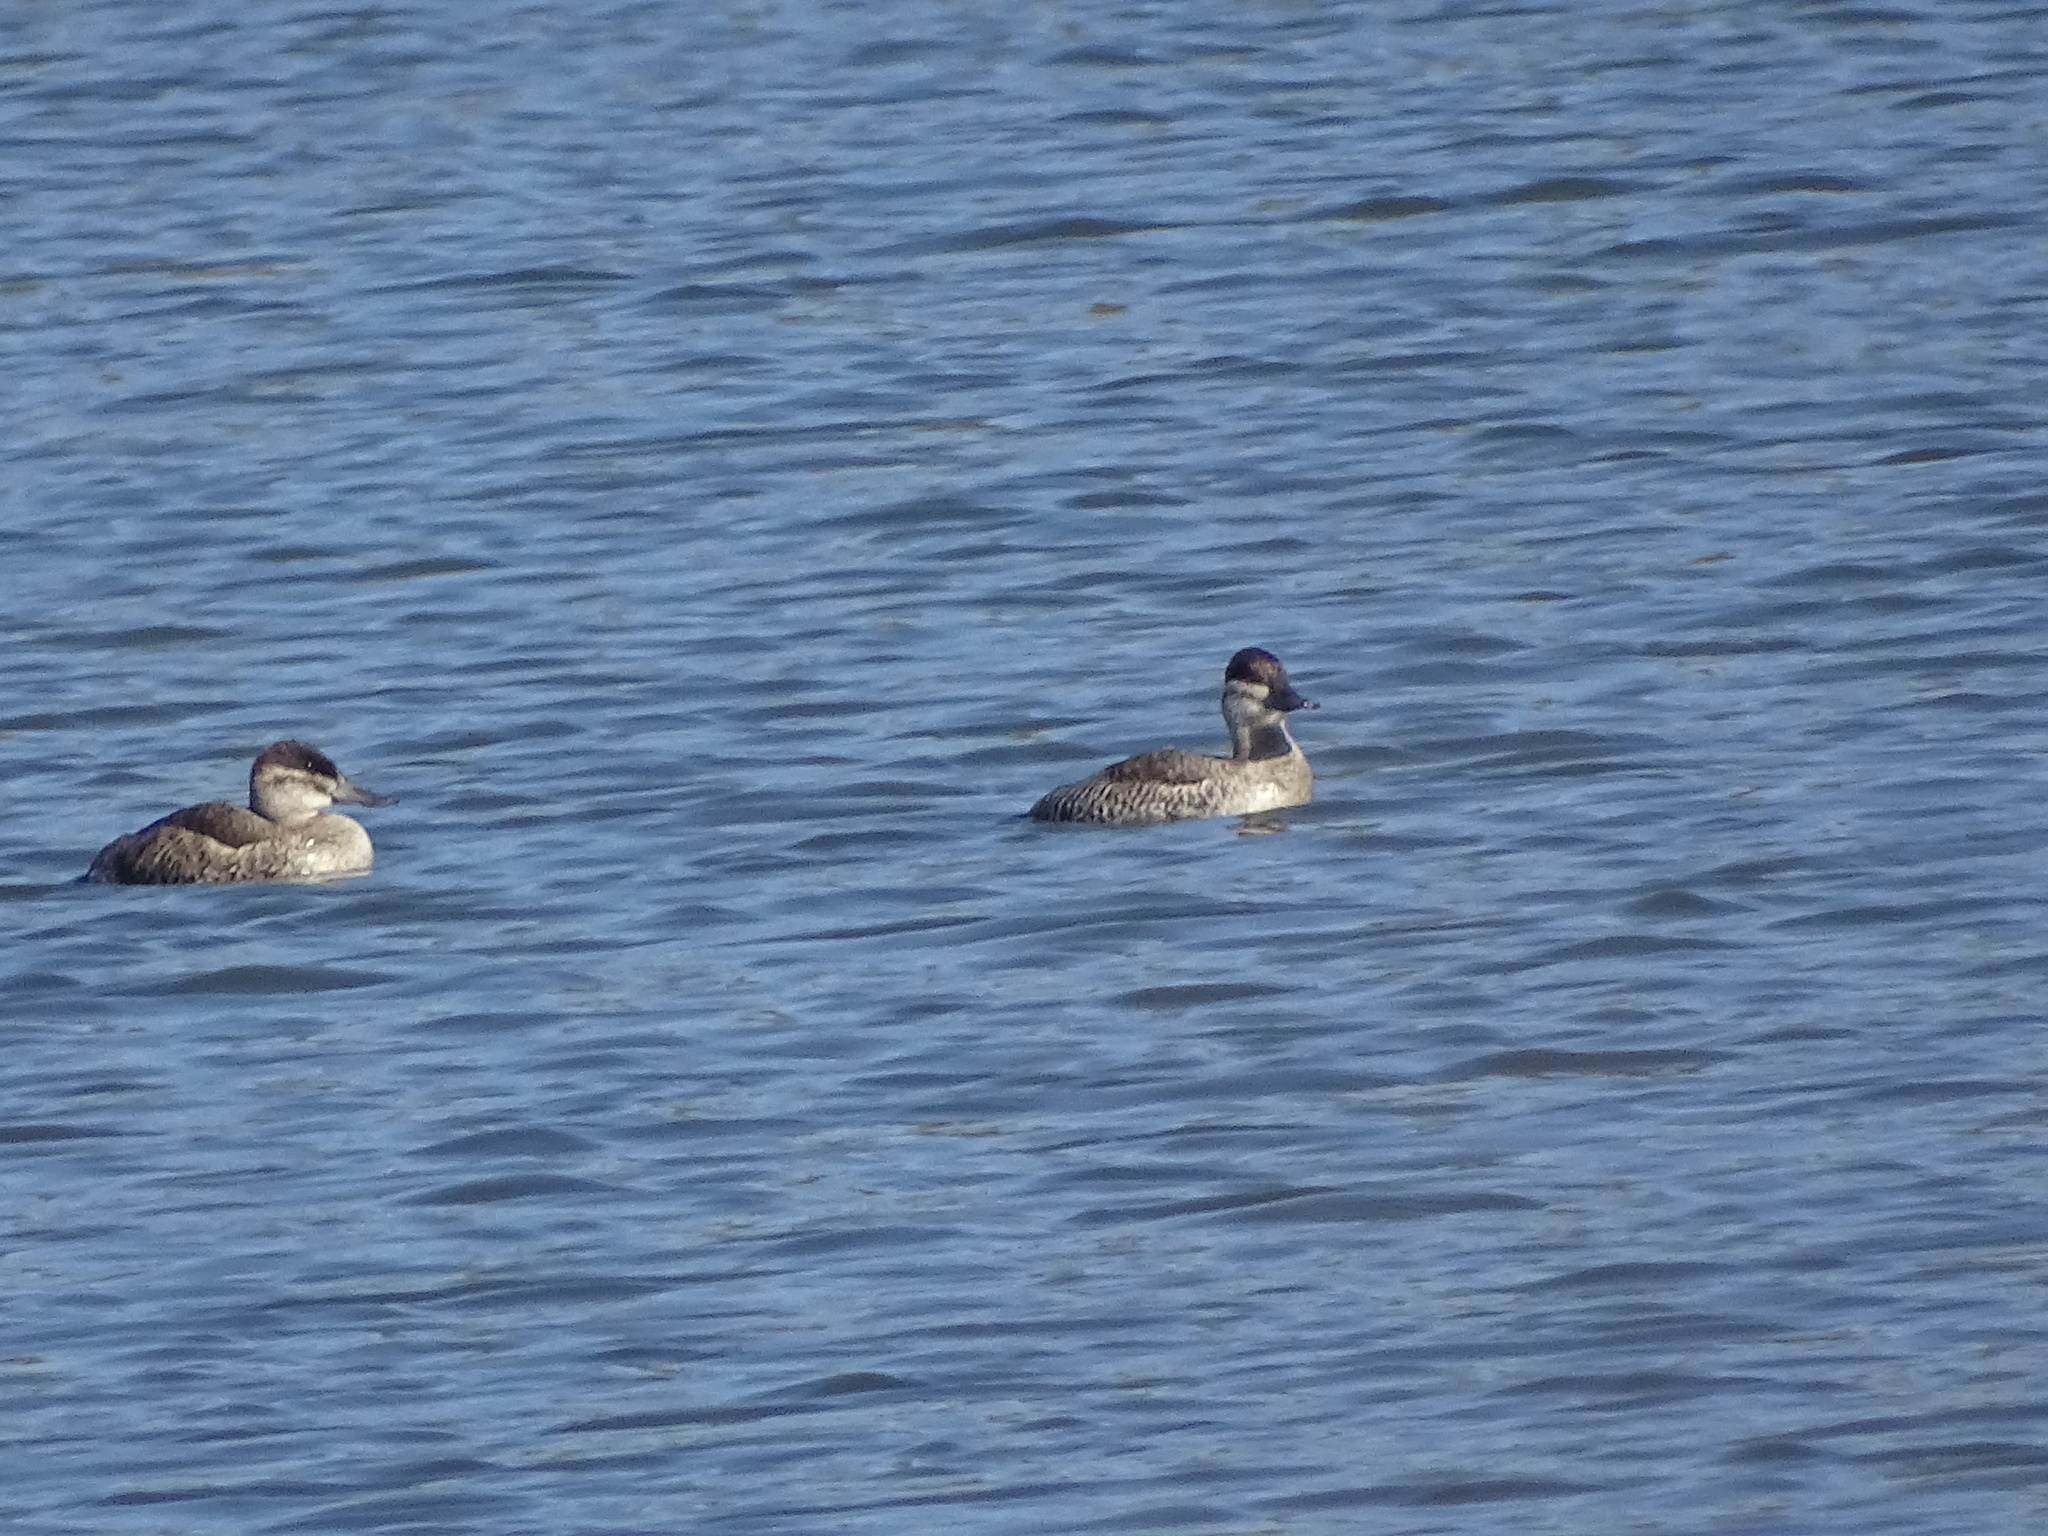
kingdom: Animalia
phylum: Chordata
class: Aves
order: Anseriformes
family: Anatidae
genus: Oxyura
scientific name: Oxyura jamaicensis
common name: Ruddy duck
